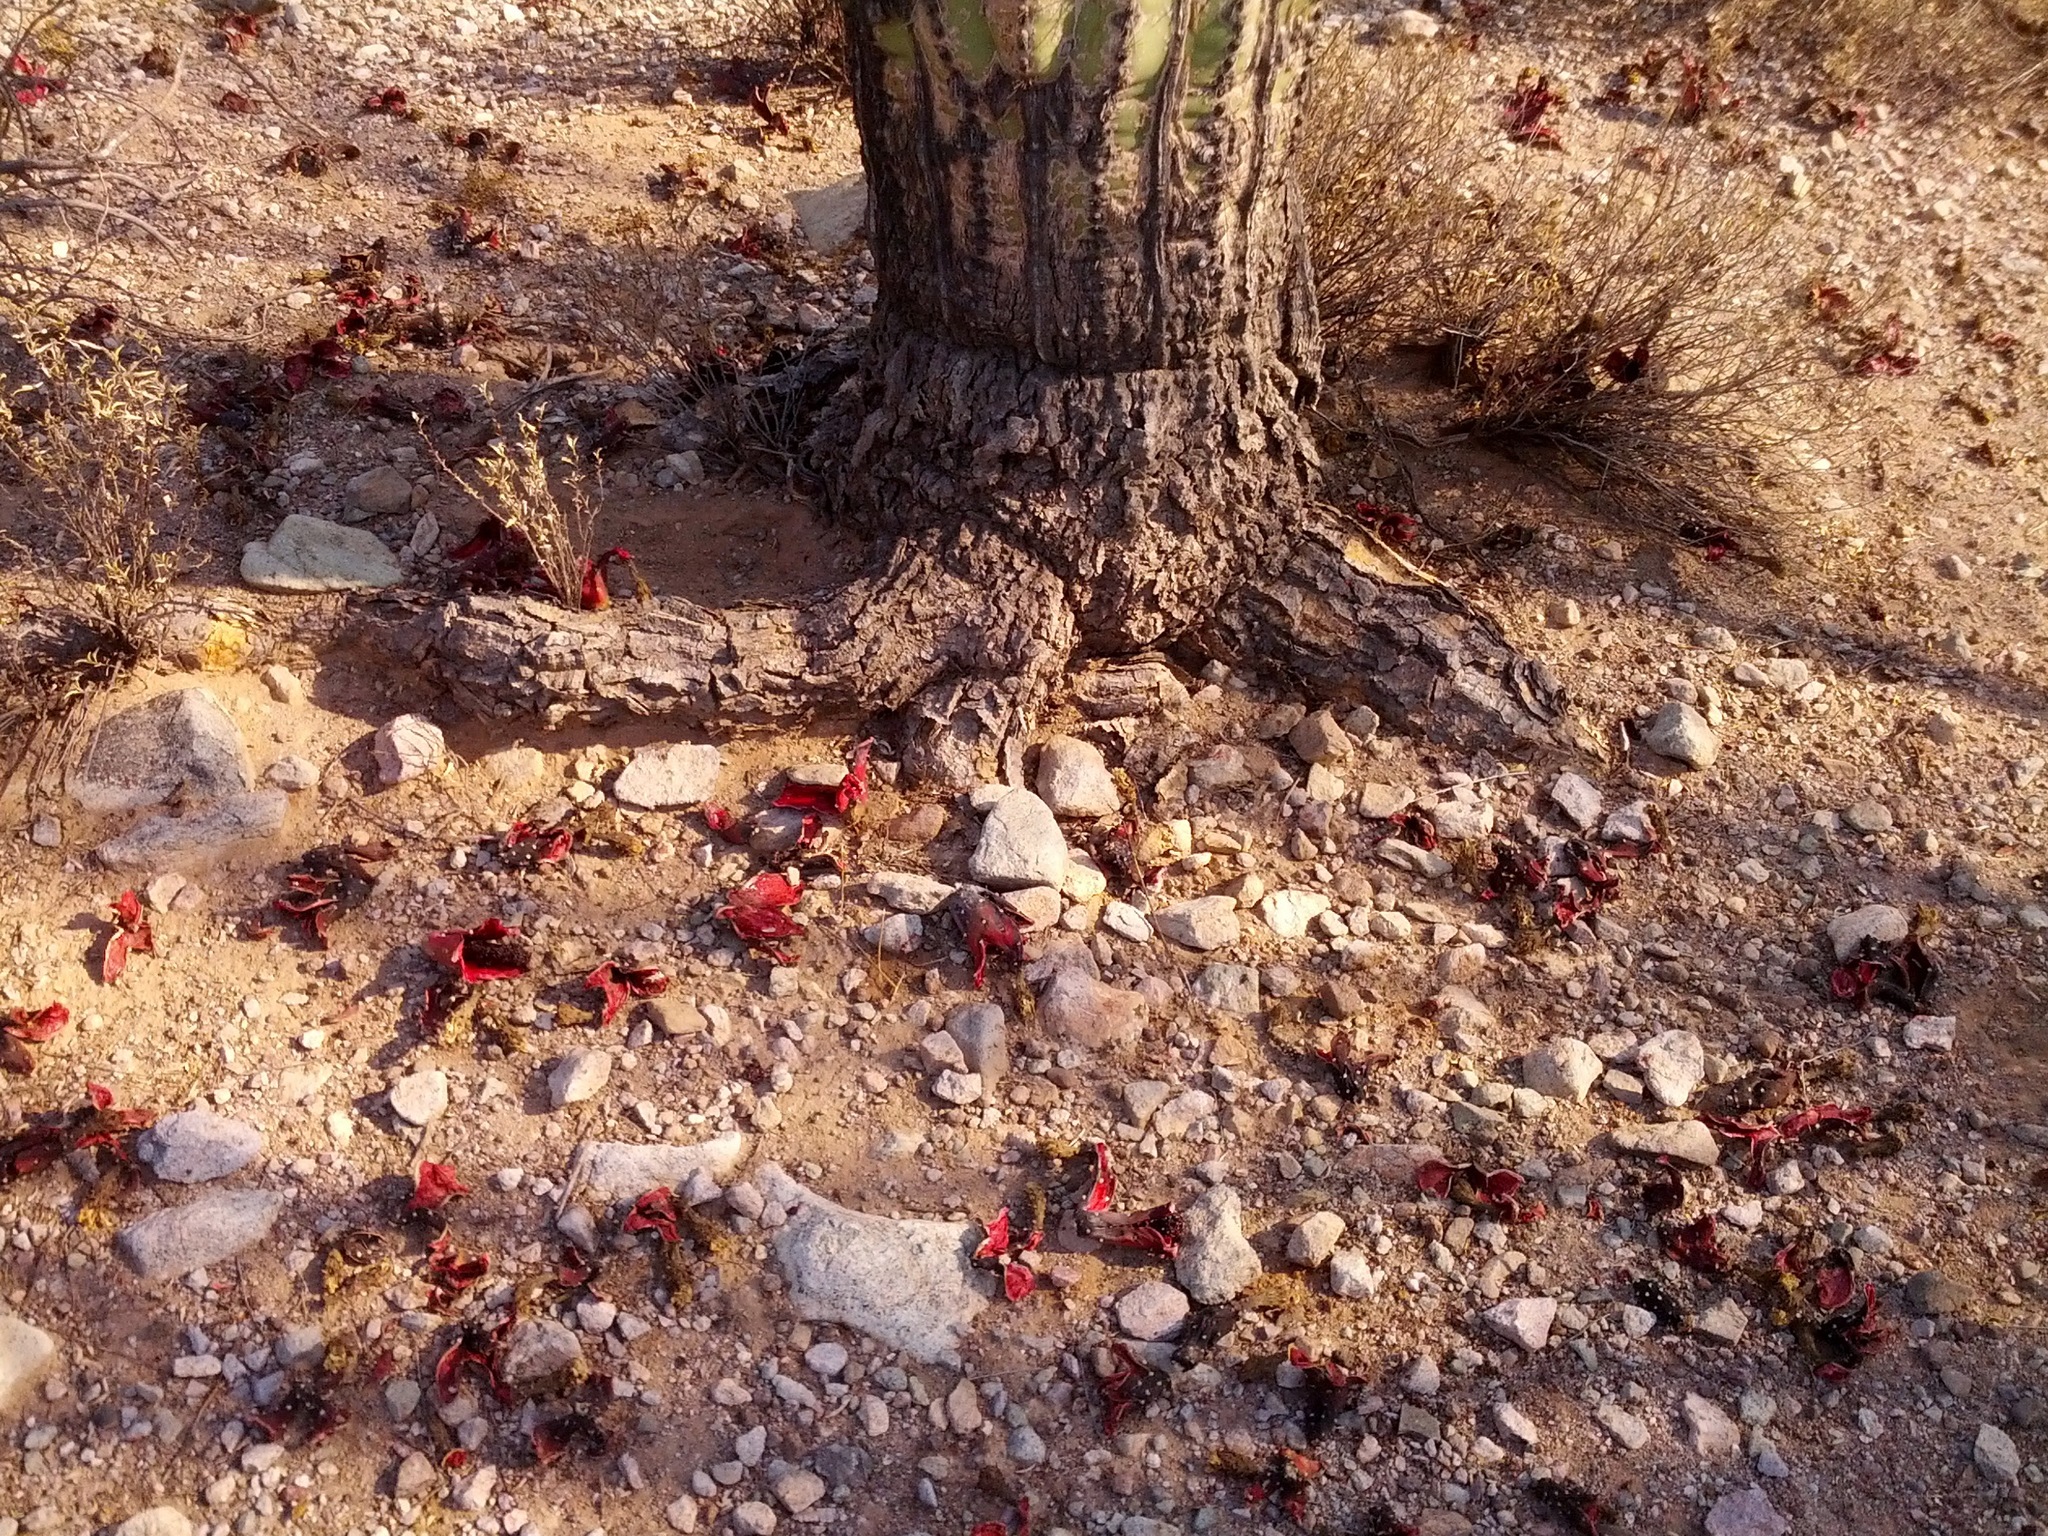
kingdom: Plantae
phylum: Tracheophyta
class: Magnoliopsida
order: Caryophyllales
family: Cactaceae
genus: Carnegiea
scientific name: Carnegiea gigantea
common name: Saguaro
